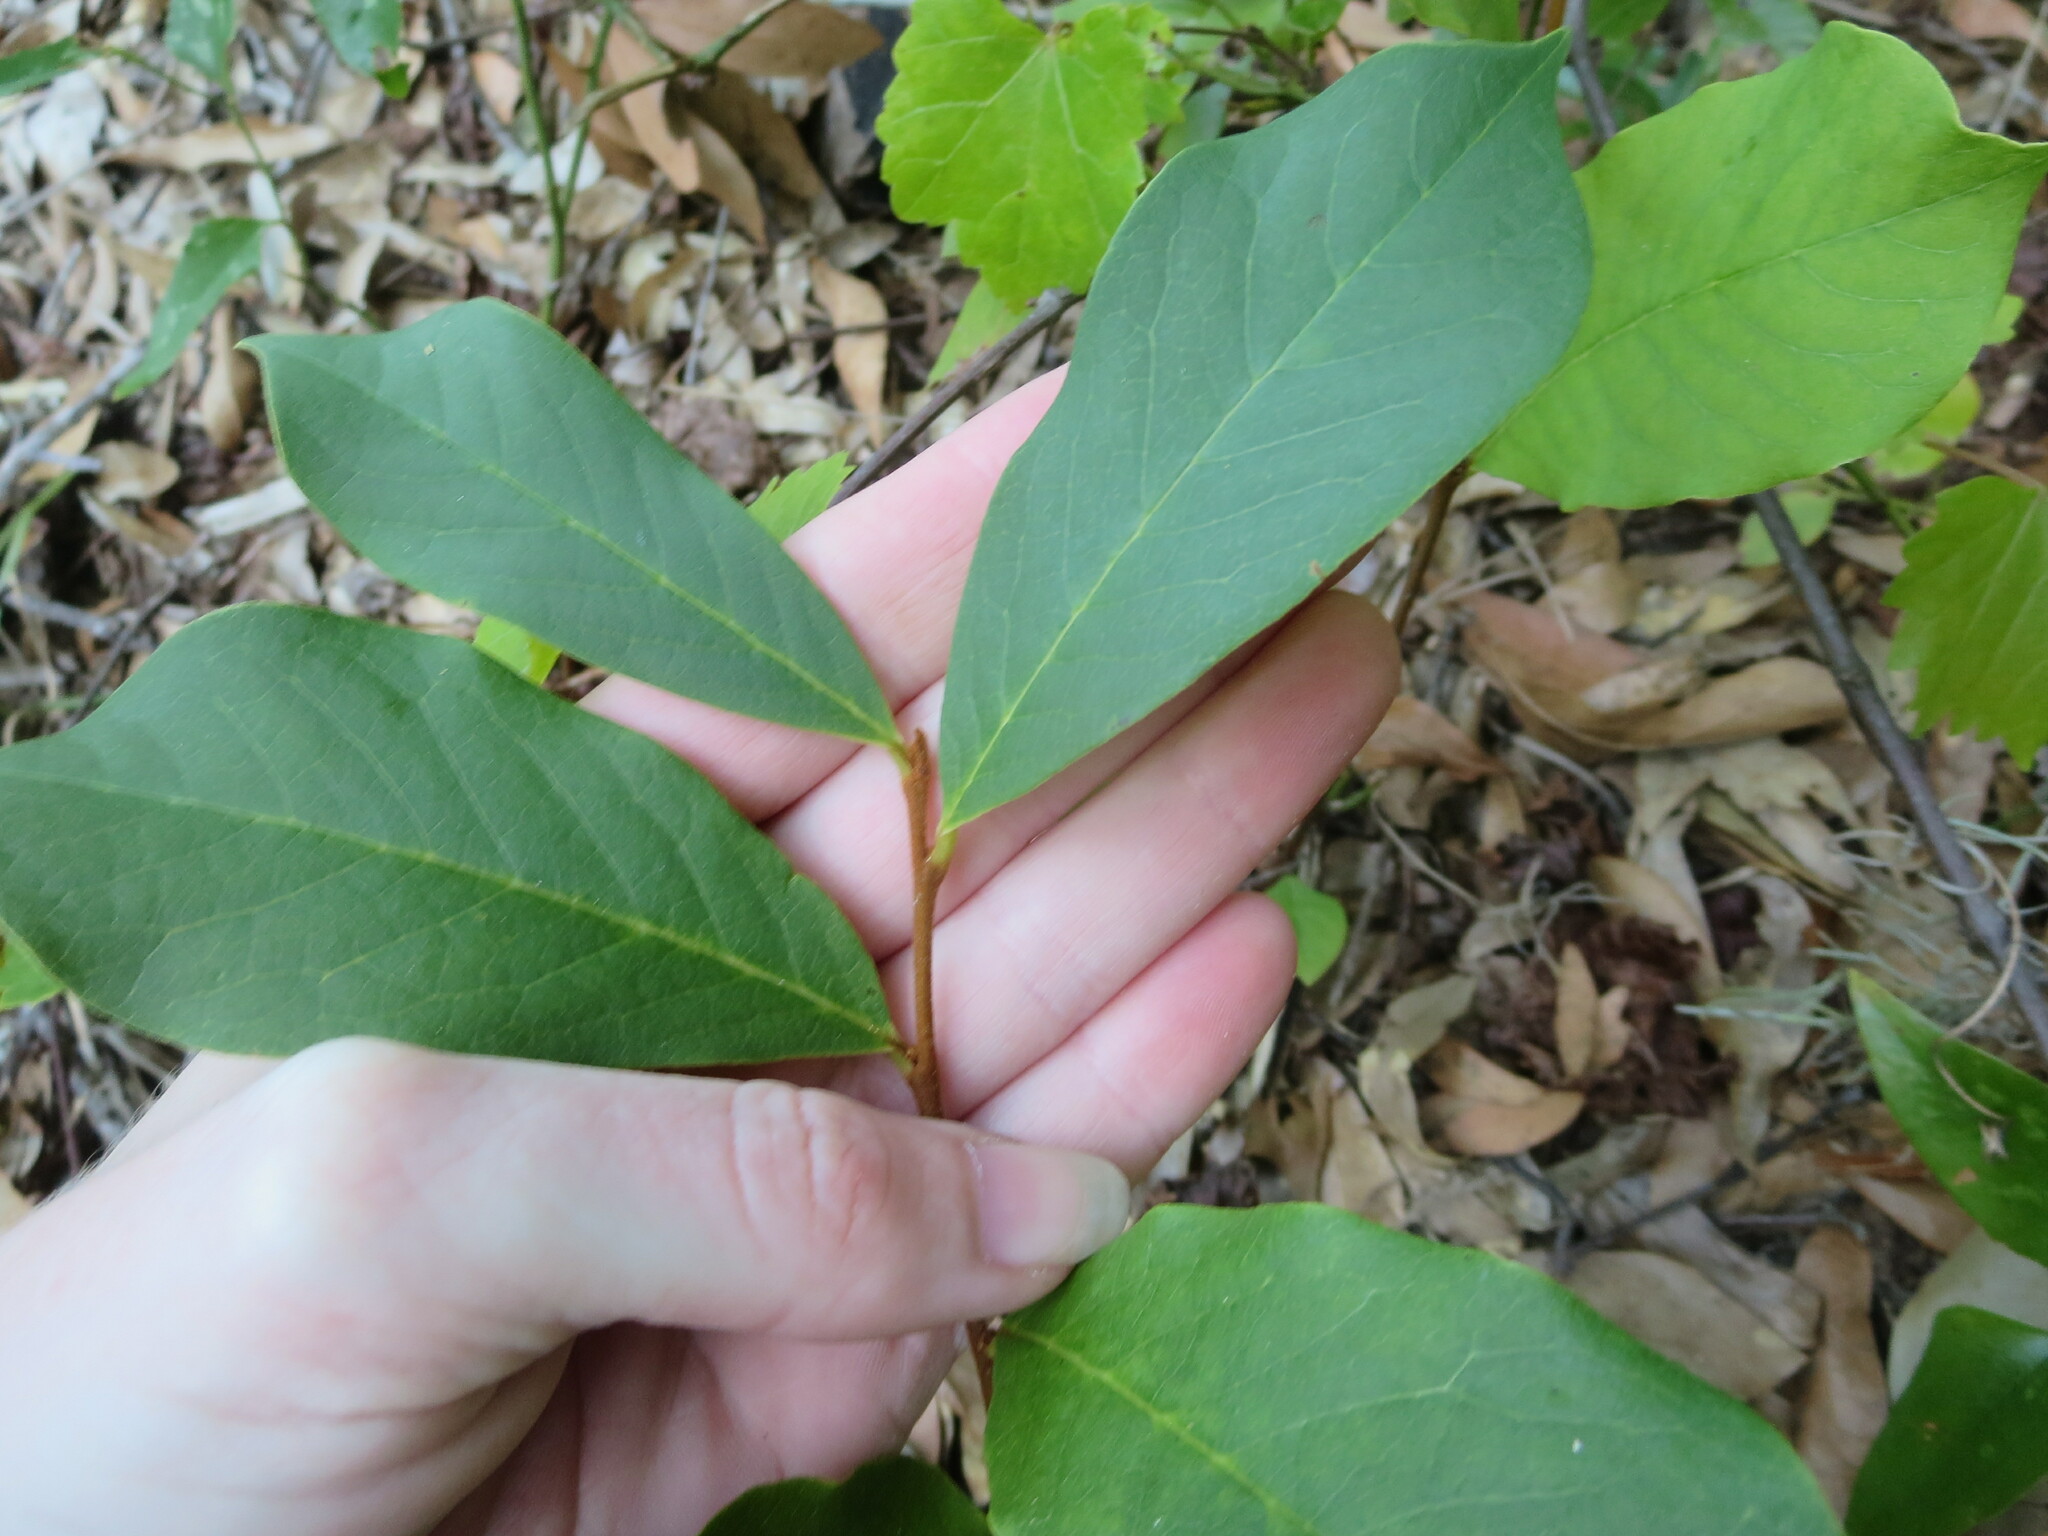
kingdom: Plantae
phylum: Tracheophyta
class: Magnoliopsida
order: Magnoliales
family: Annonaceae
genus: Asimina
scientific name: Asimina parviflora
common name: Dwarf pawpaw
